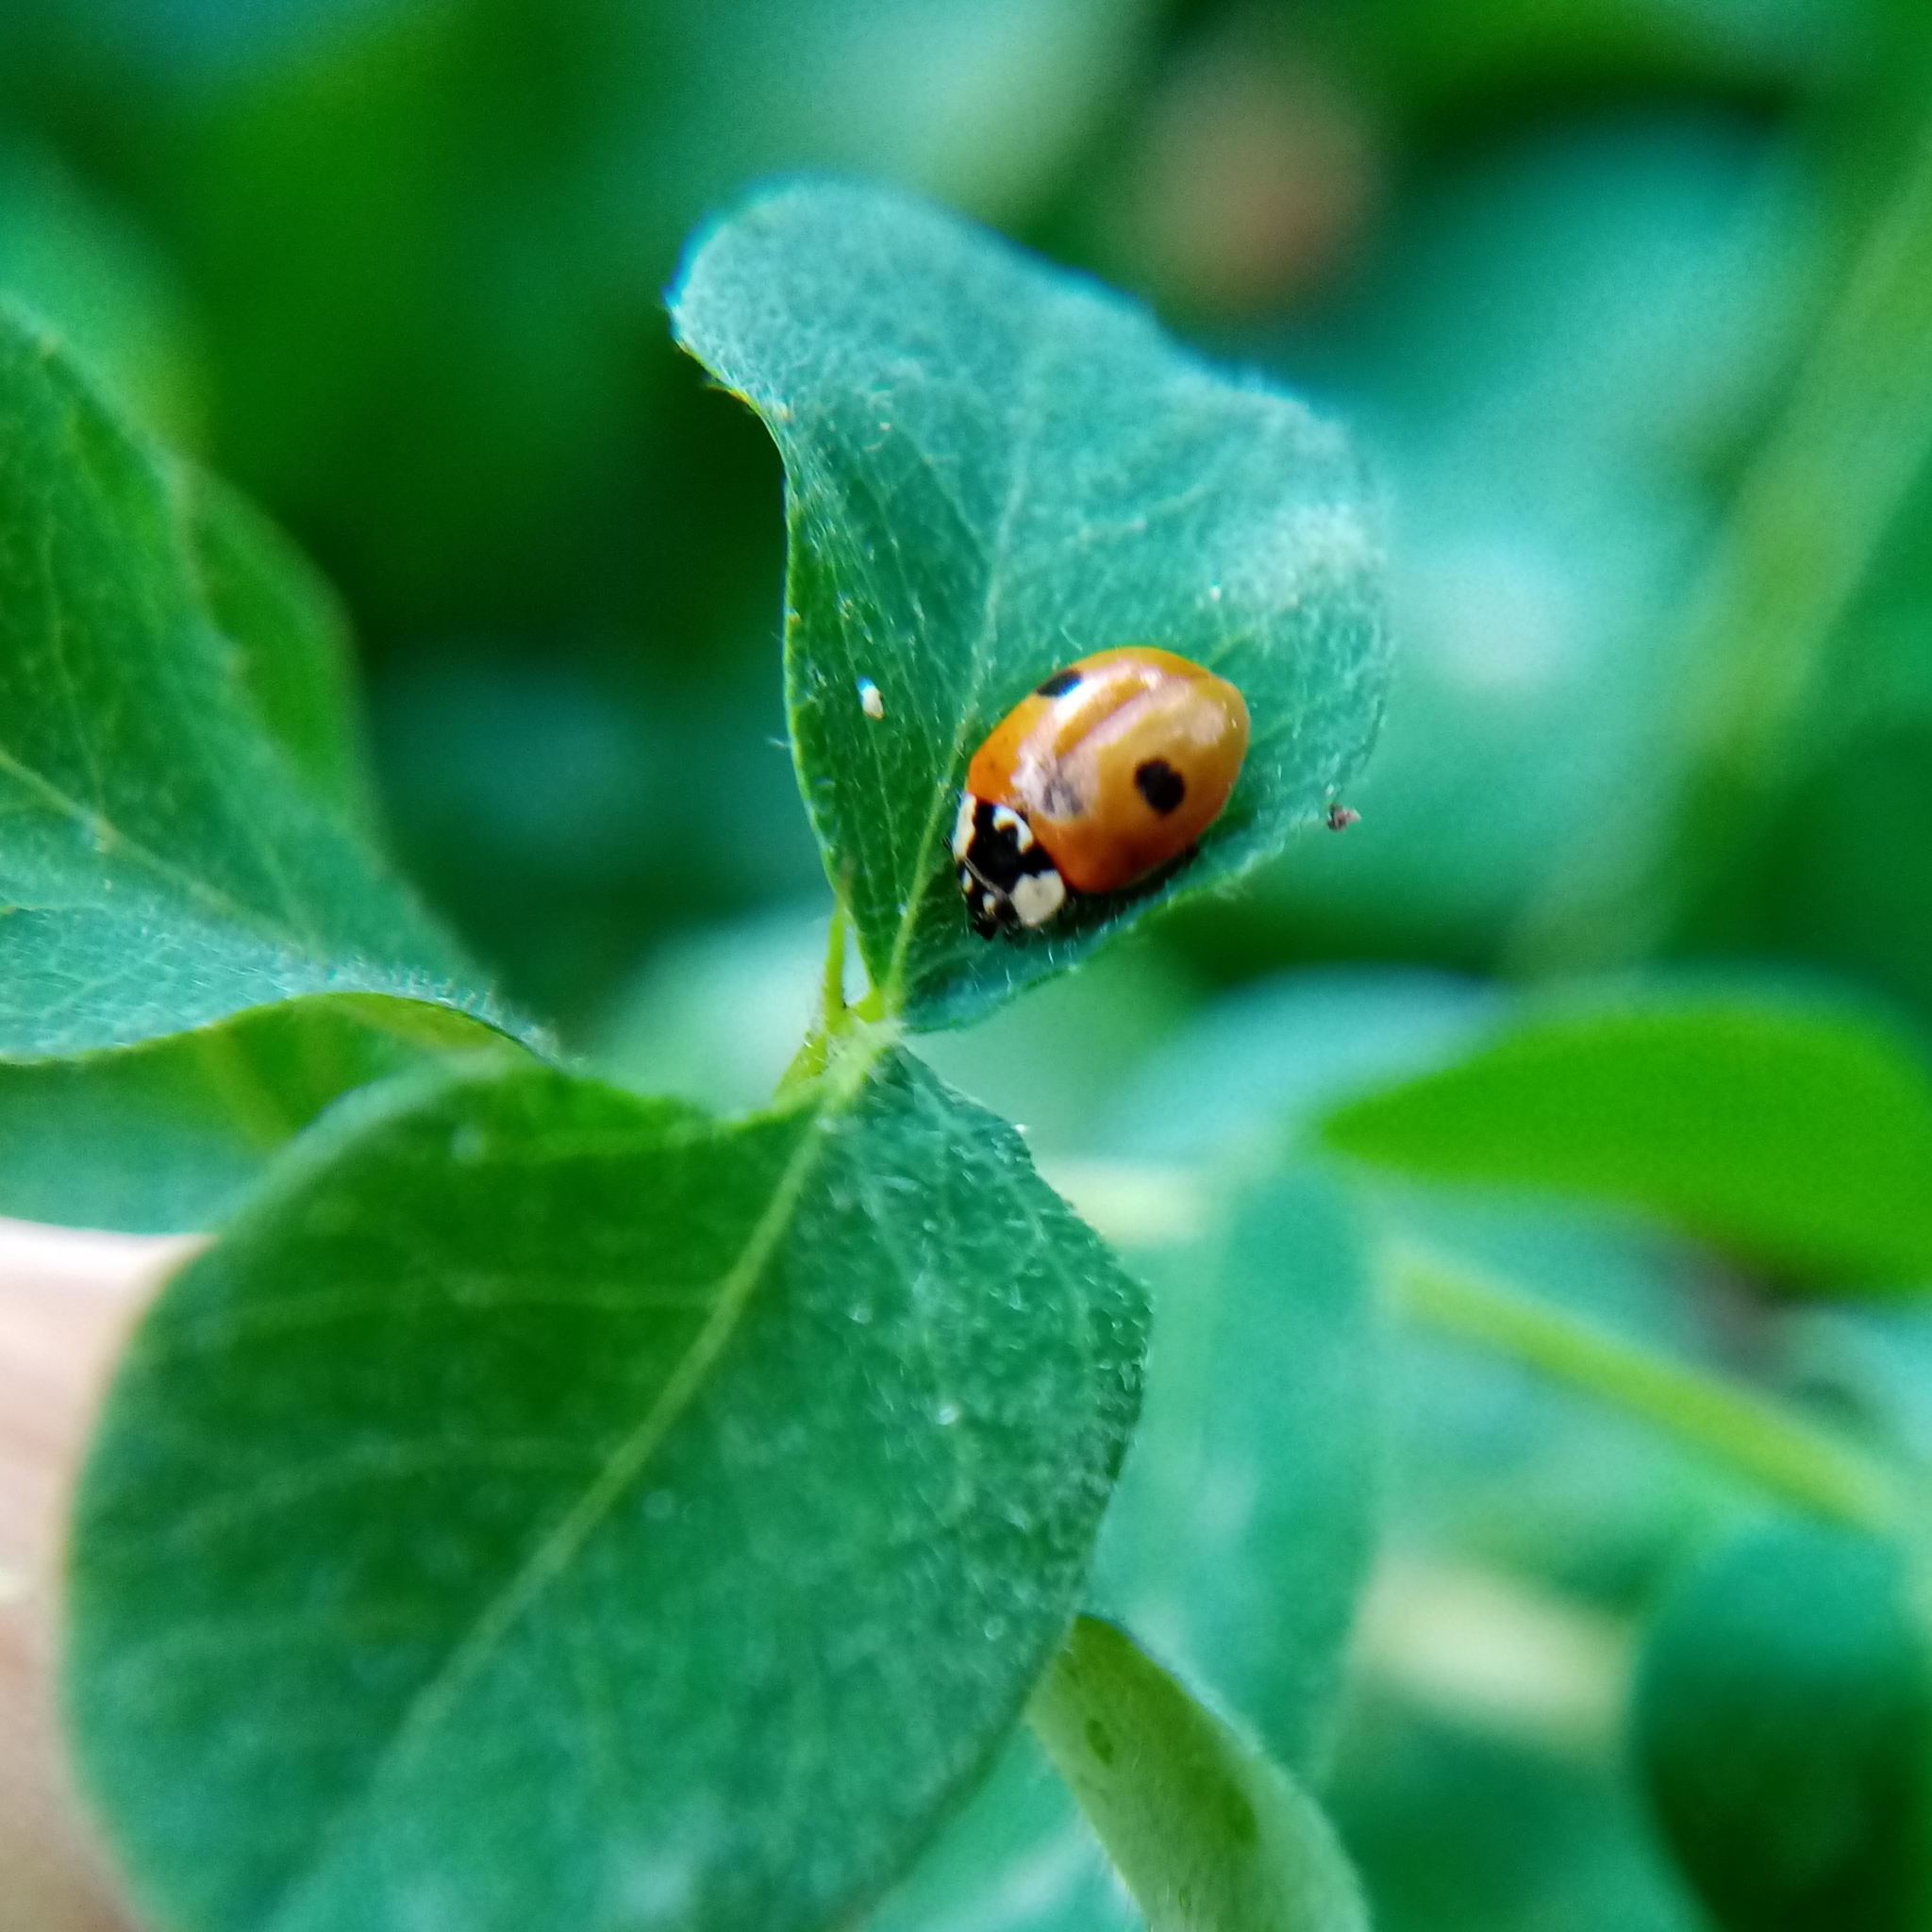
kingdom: Animalia
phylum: Arthropoda
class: Insecta
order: Coleoptera
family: Coccinellidae
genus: Adalia
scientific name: Adalia bipunctata
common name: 2-spot ladybird
